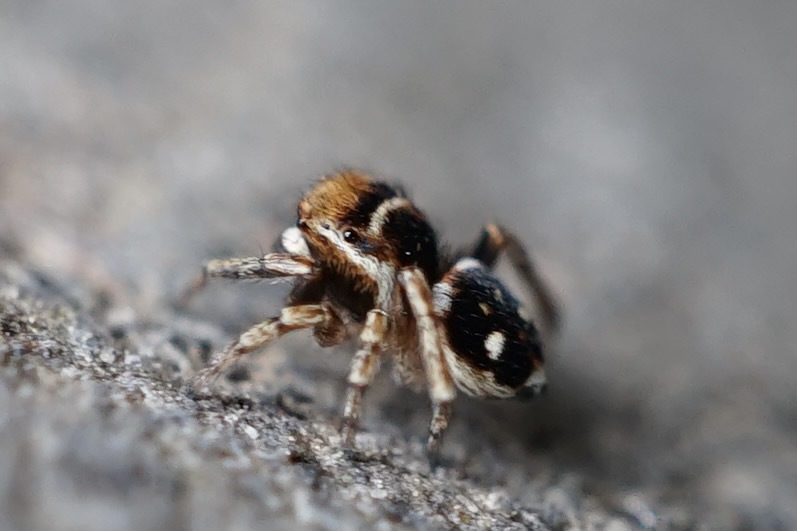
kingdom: Animalia
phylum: Arthropoda
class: Arachnida
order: Araneae
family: Salticidae
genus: Attulus
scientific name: Attulus penicillatus
